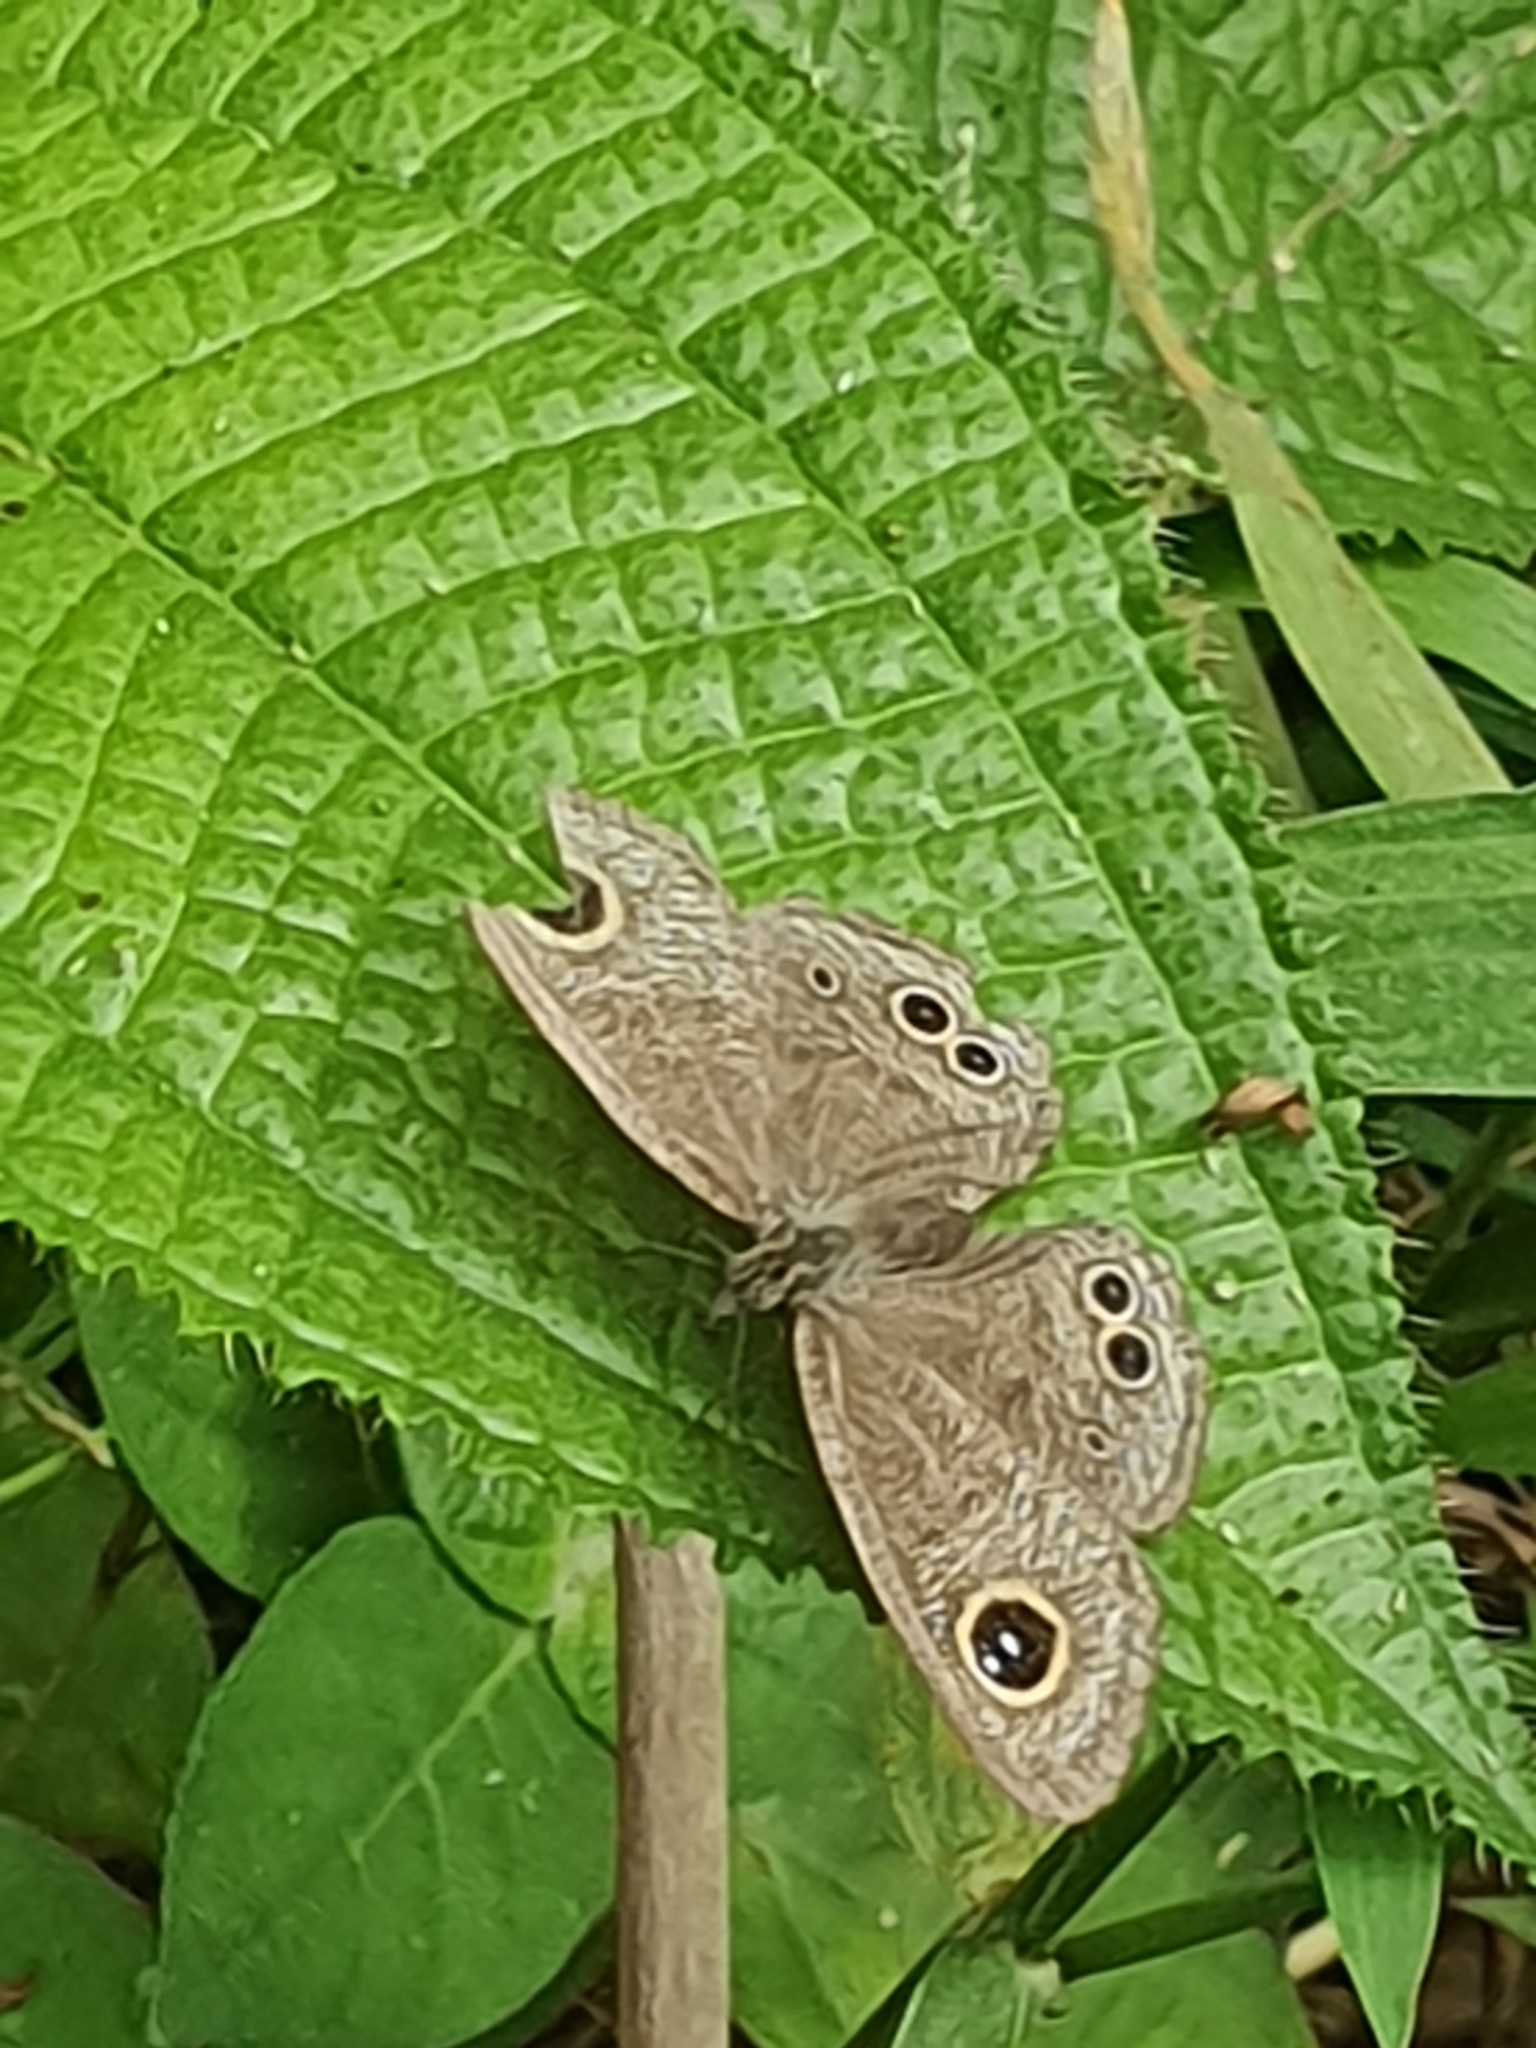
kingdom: Animalia
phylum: Arthropoda
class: Insecta
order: Lepidoptera
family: Nymphalidae
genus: Ypthima
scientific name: Ypthima baldus
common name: Common five-ring
